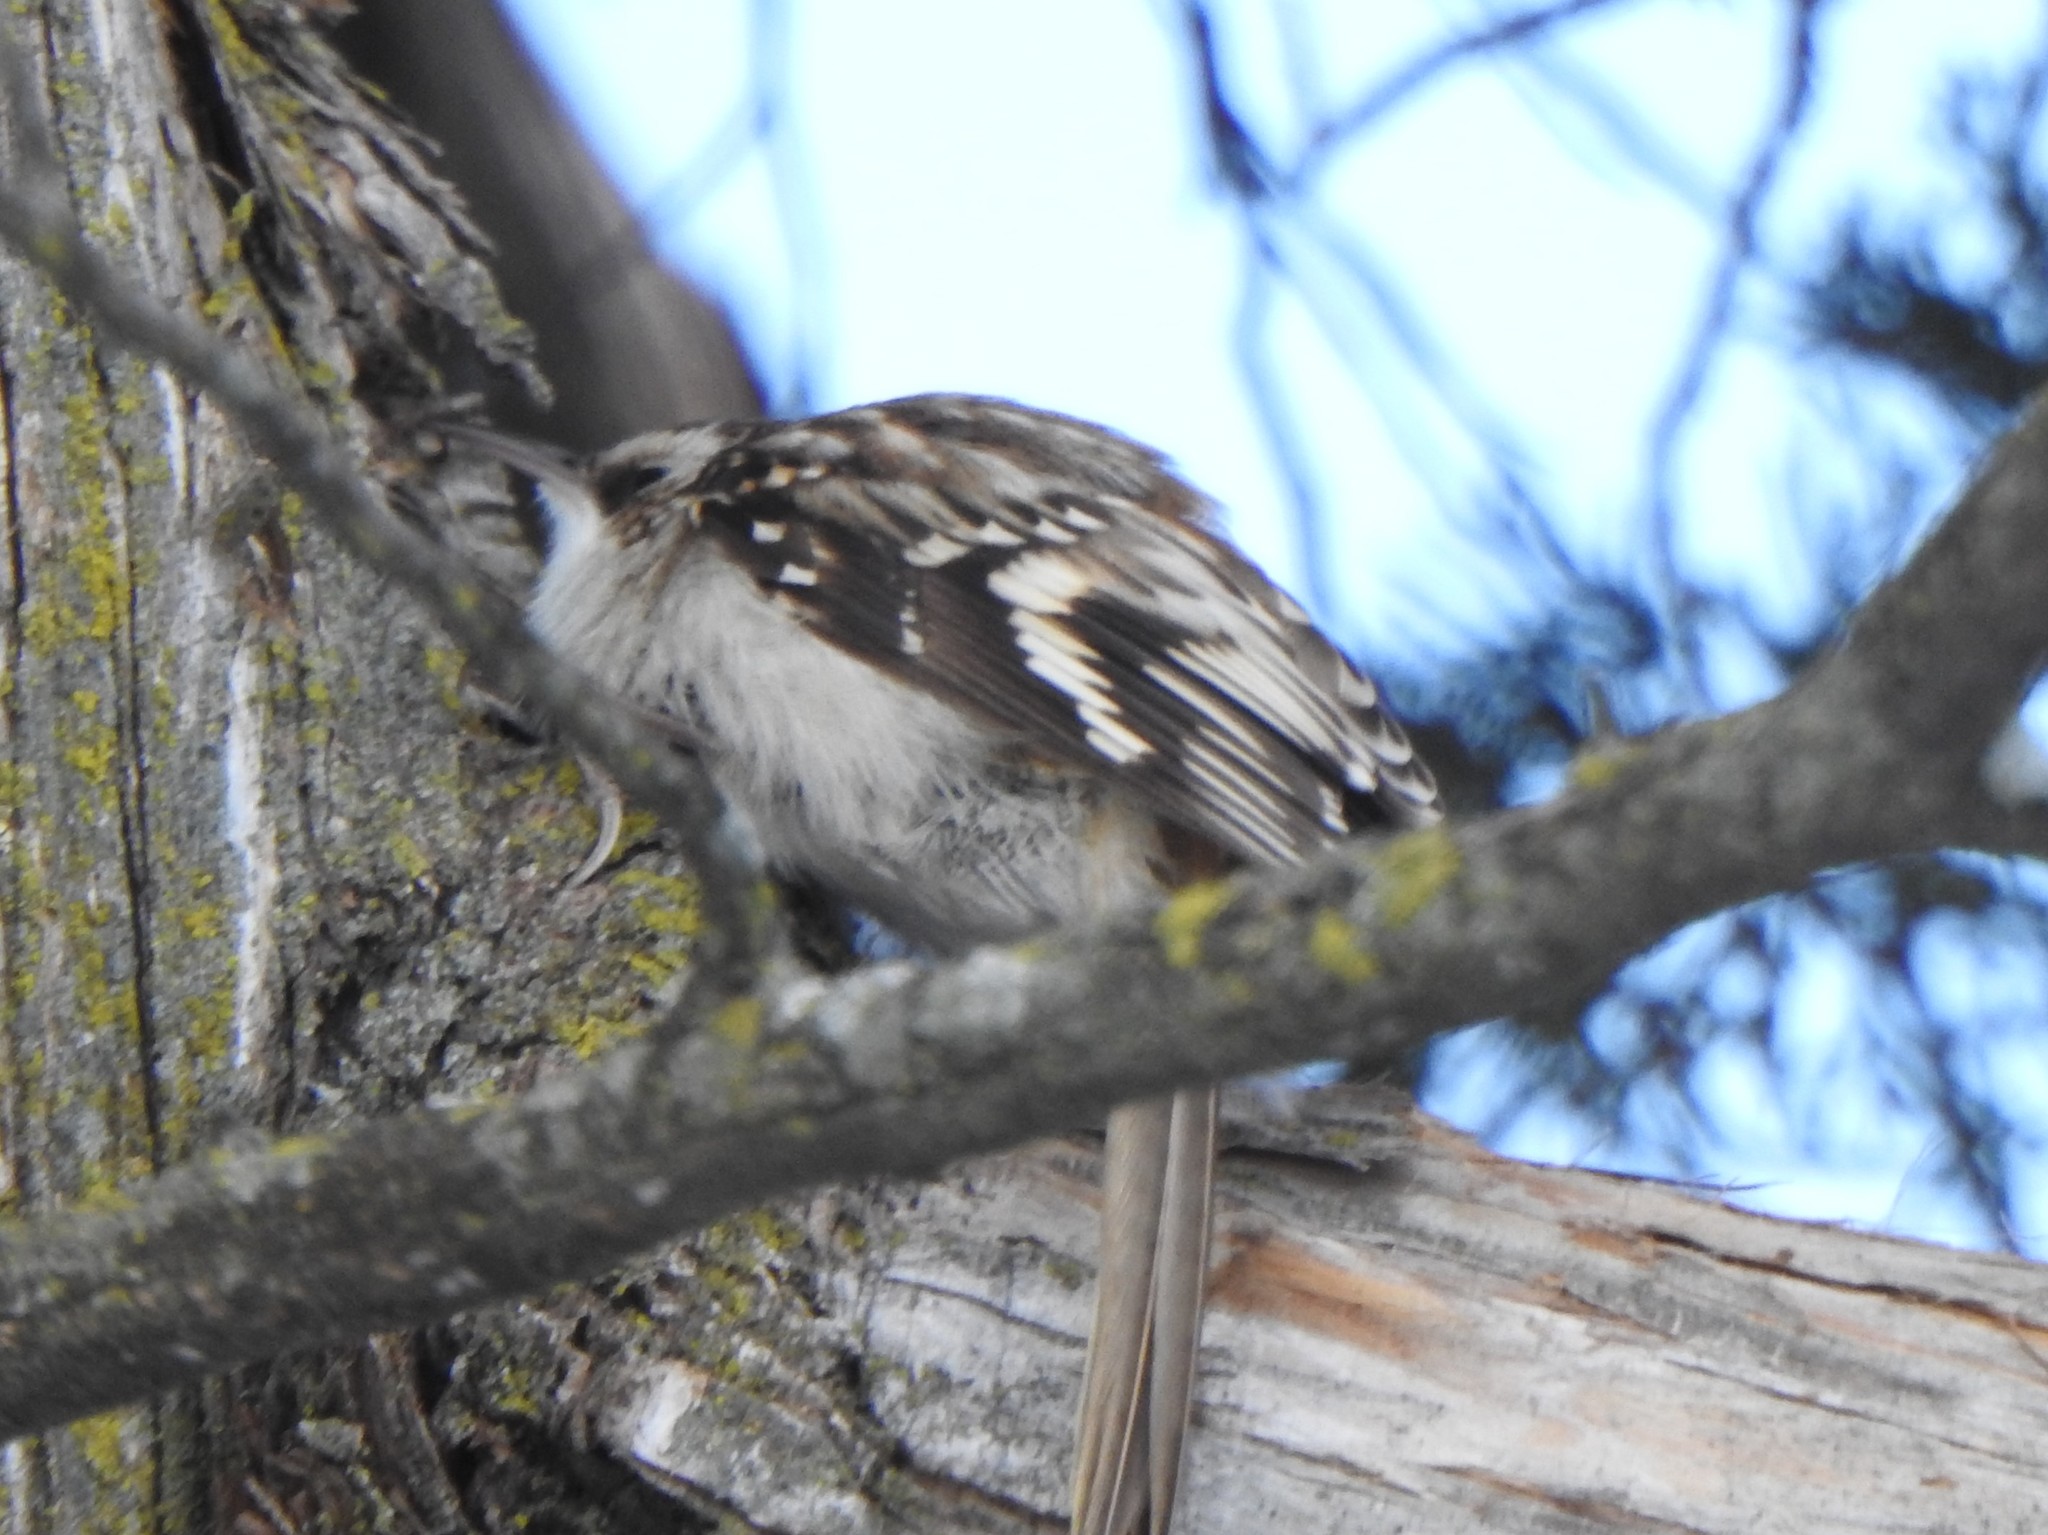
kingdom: Animalia
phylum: Chordata
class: Aves
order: Passeriformes
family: Certhiidae
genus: Certhia
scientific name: Certhia americana
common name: Brown creeper
